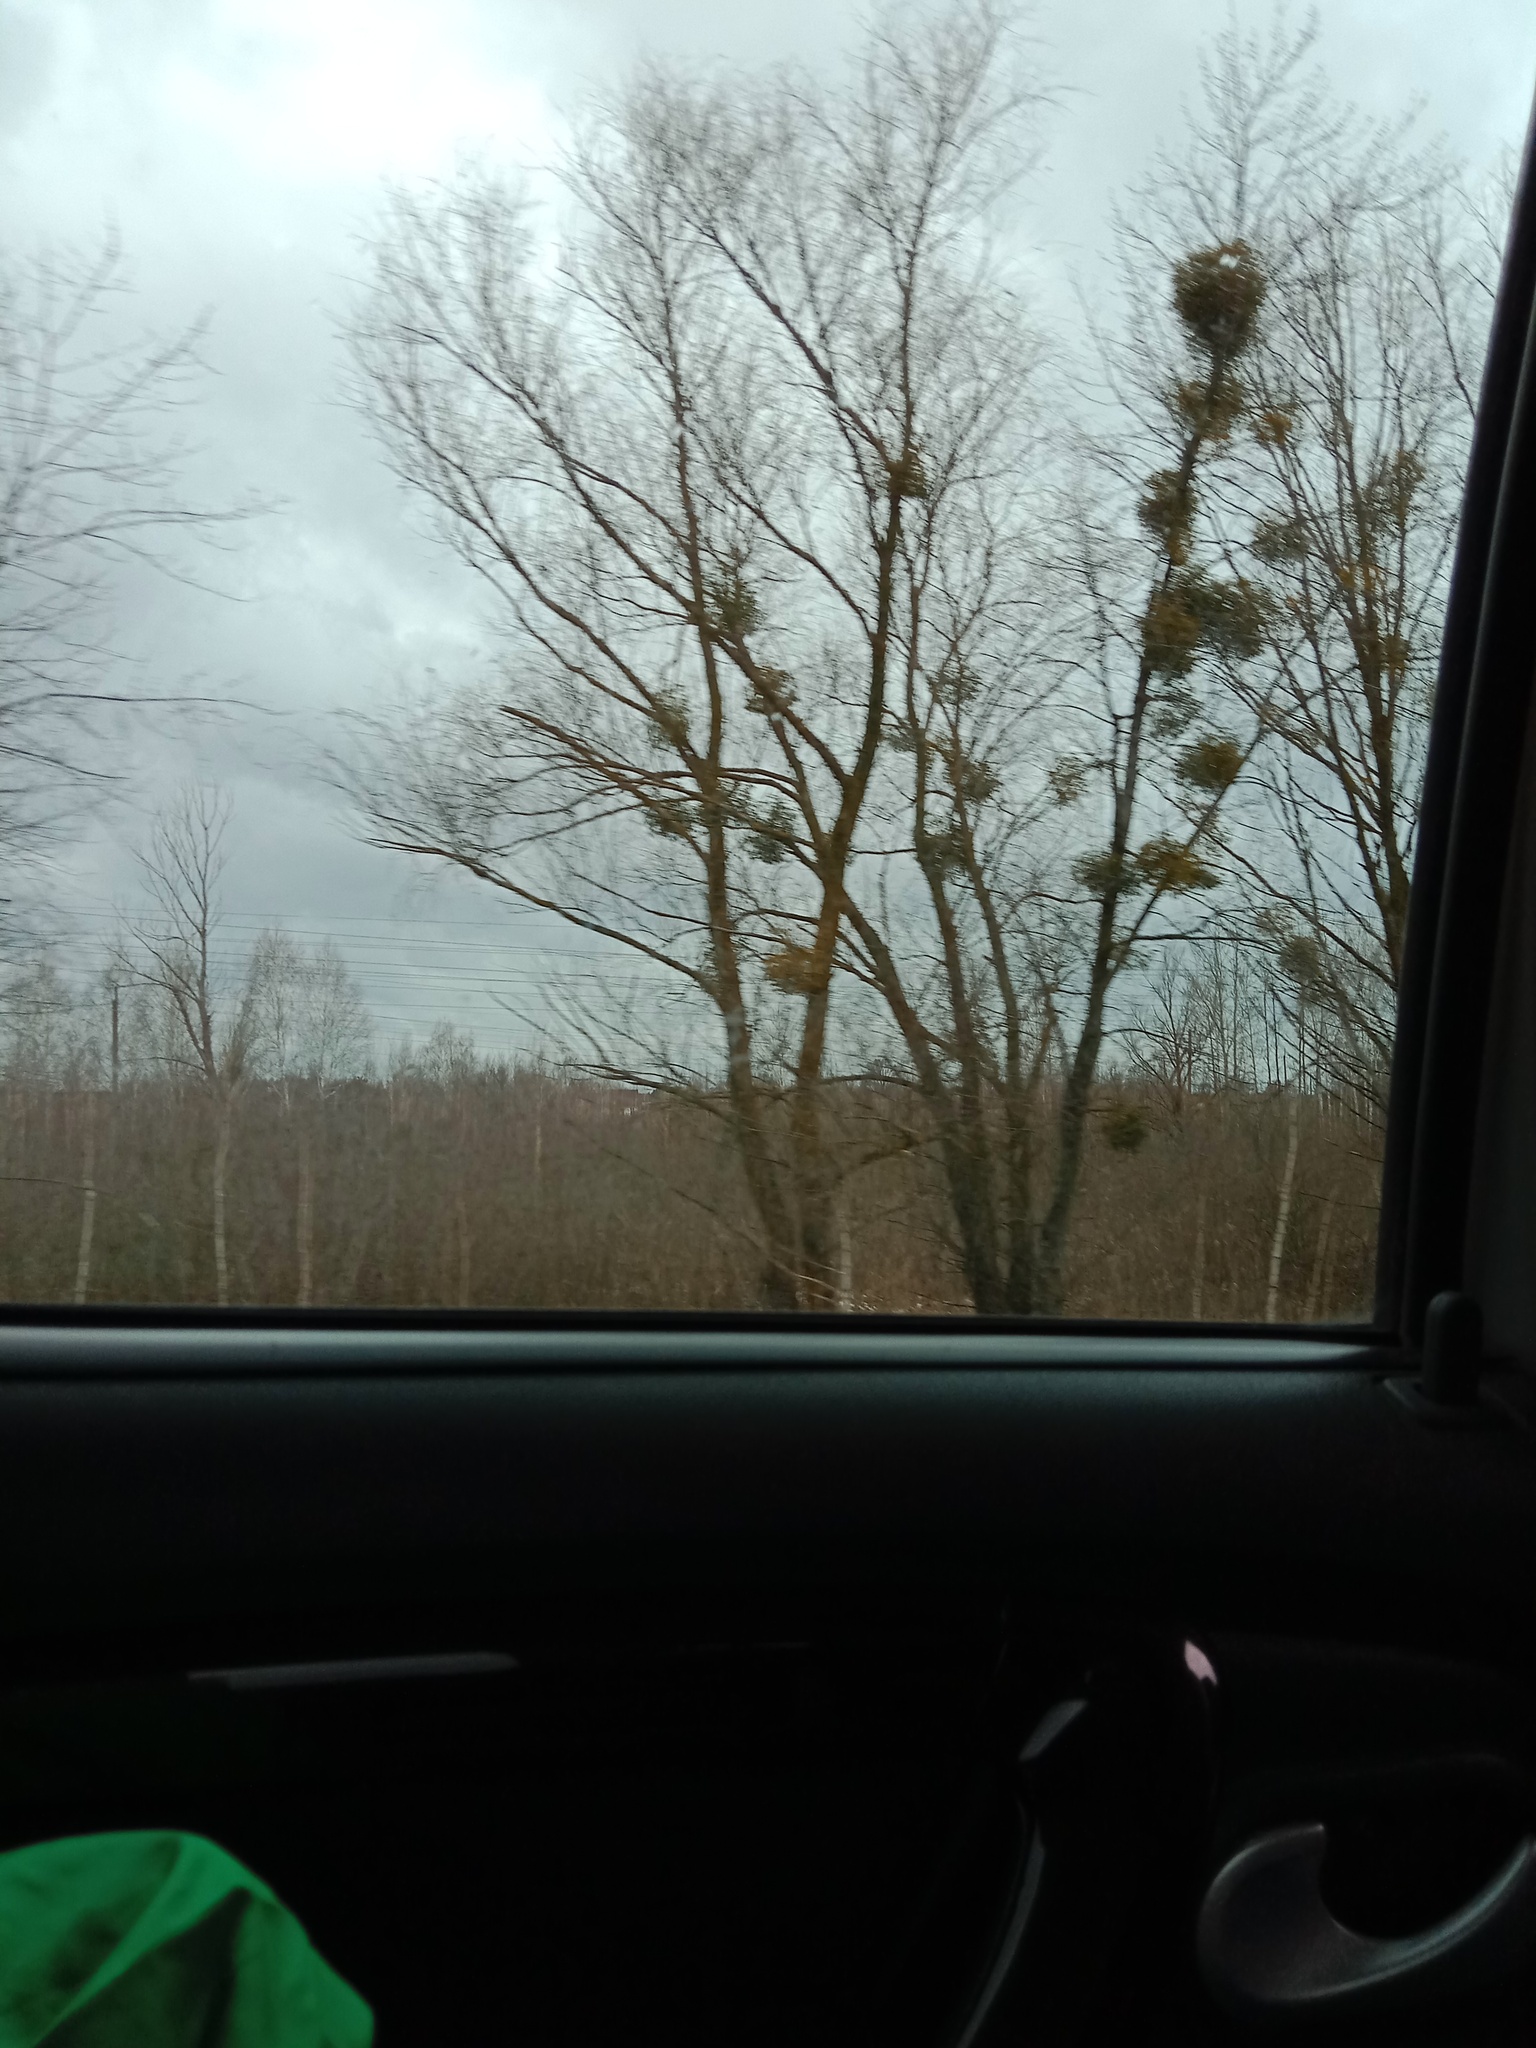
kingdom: Plantae
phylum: Tracheophyta
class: Magnoliopsida
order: Santalales
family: Viscaceae
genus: Viscum
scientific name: Viscum album
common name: Mistletoe
